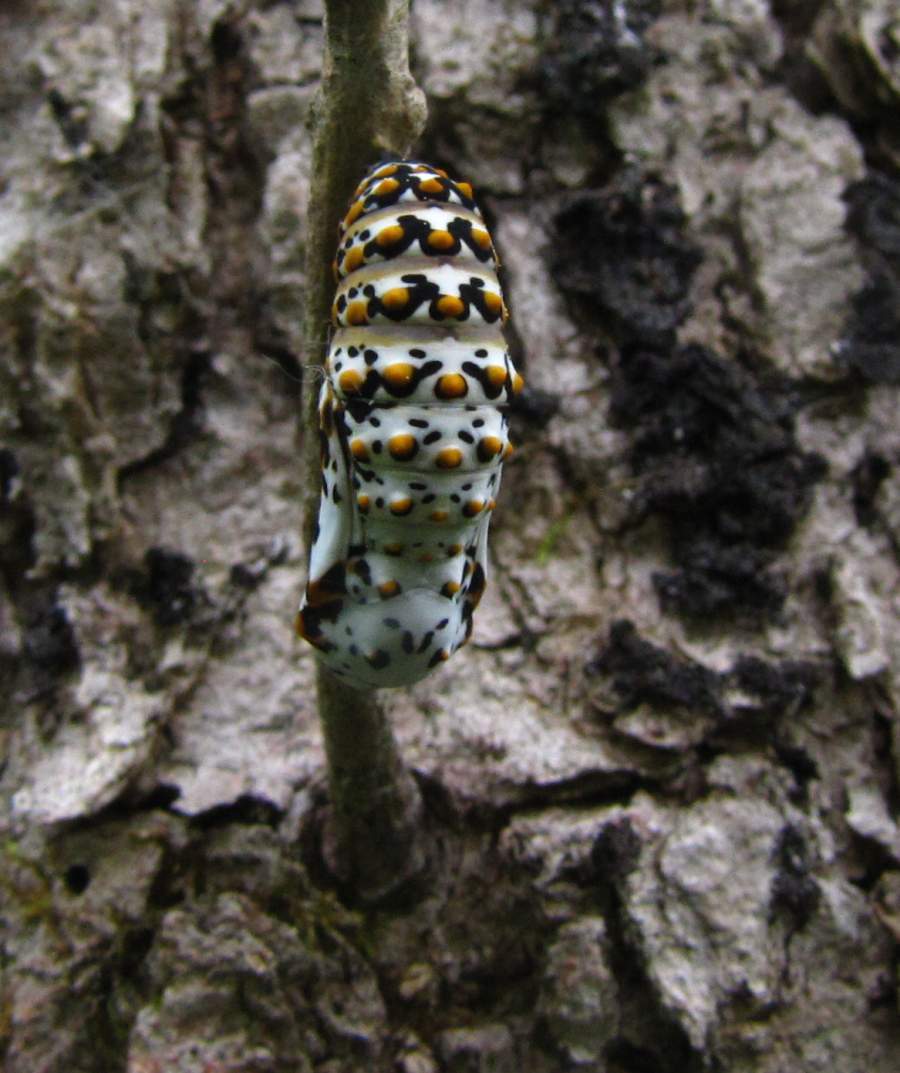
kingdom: Animalia
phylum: Arthropoda
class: Insecta
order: Lepidoptera
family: Nymphalidae
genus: Euphydryas
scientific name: Euphydryas phaeton
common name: Baltimore checkerspot
